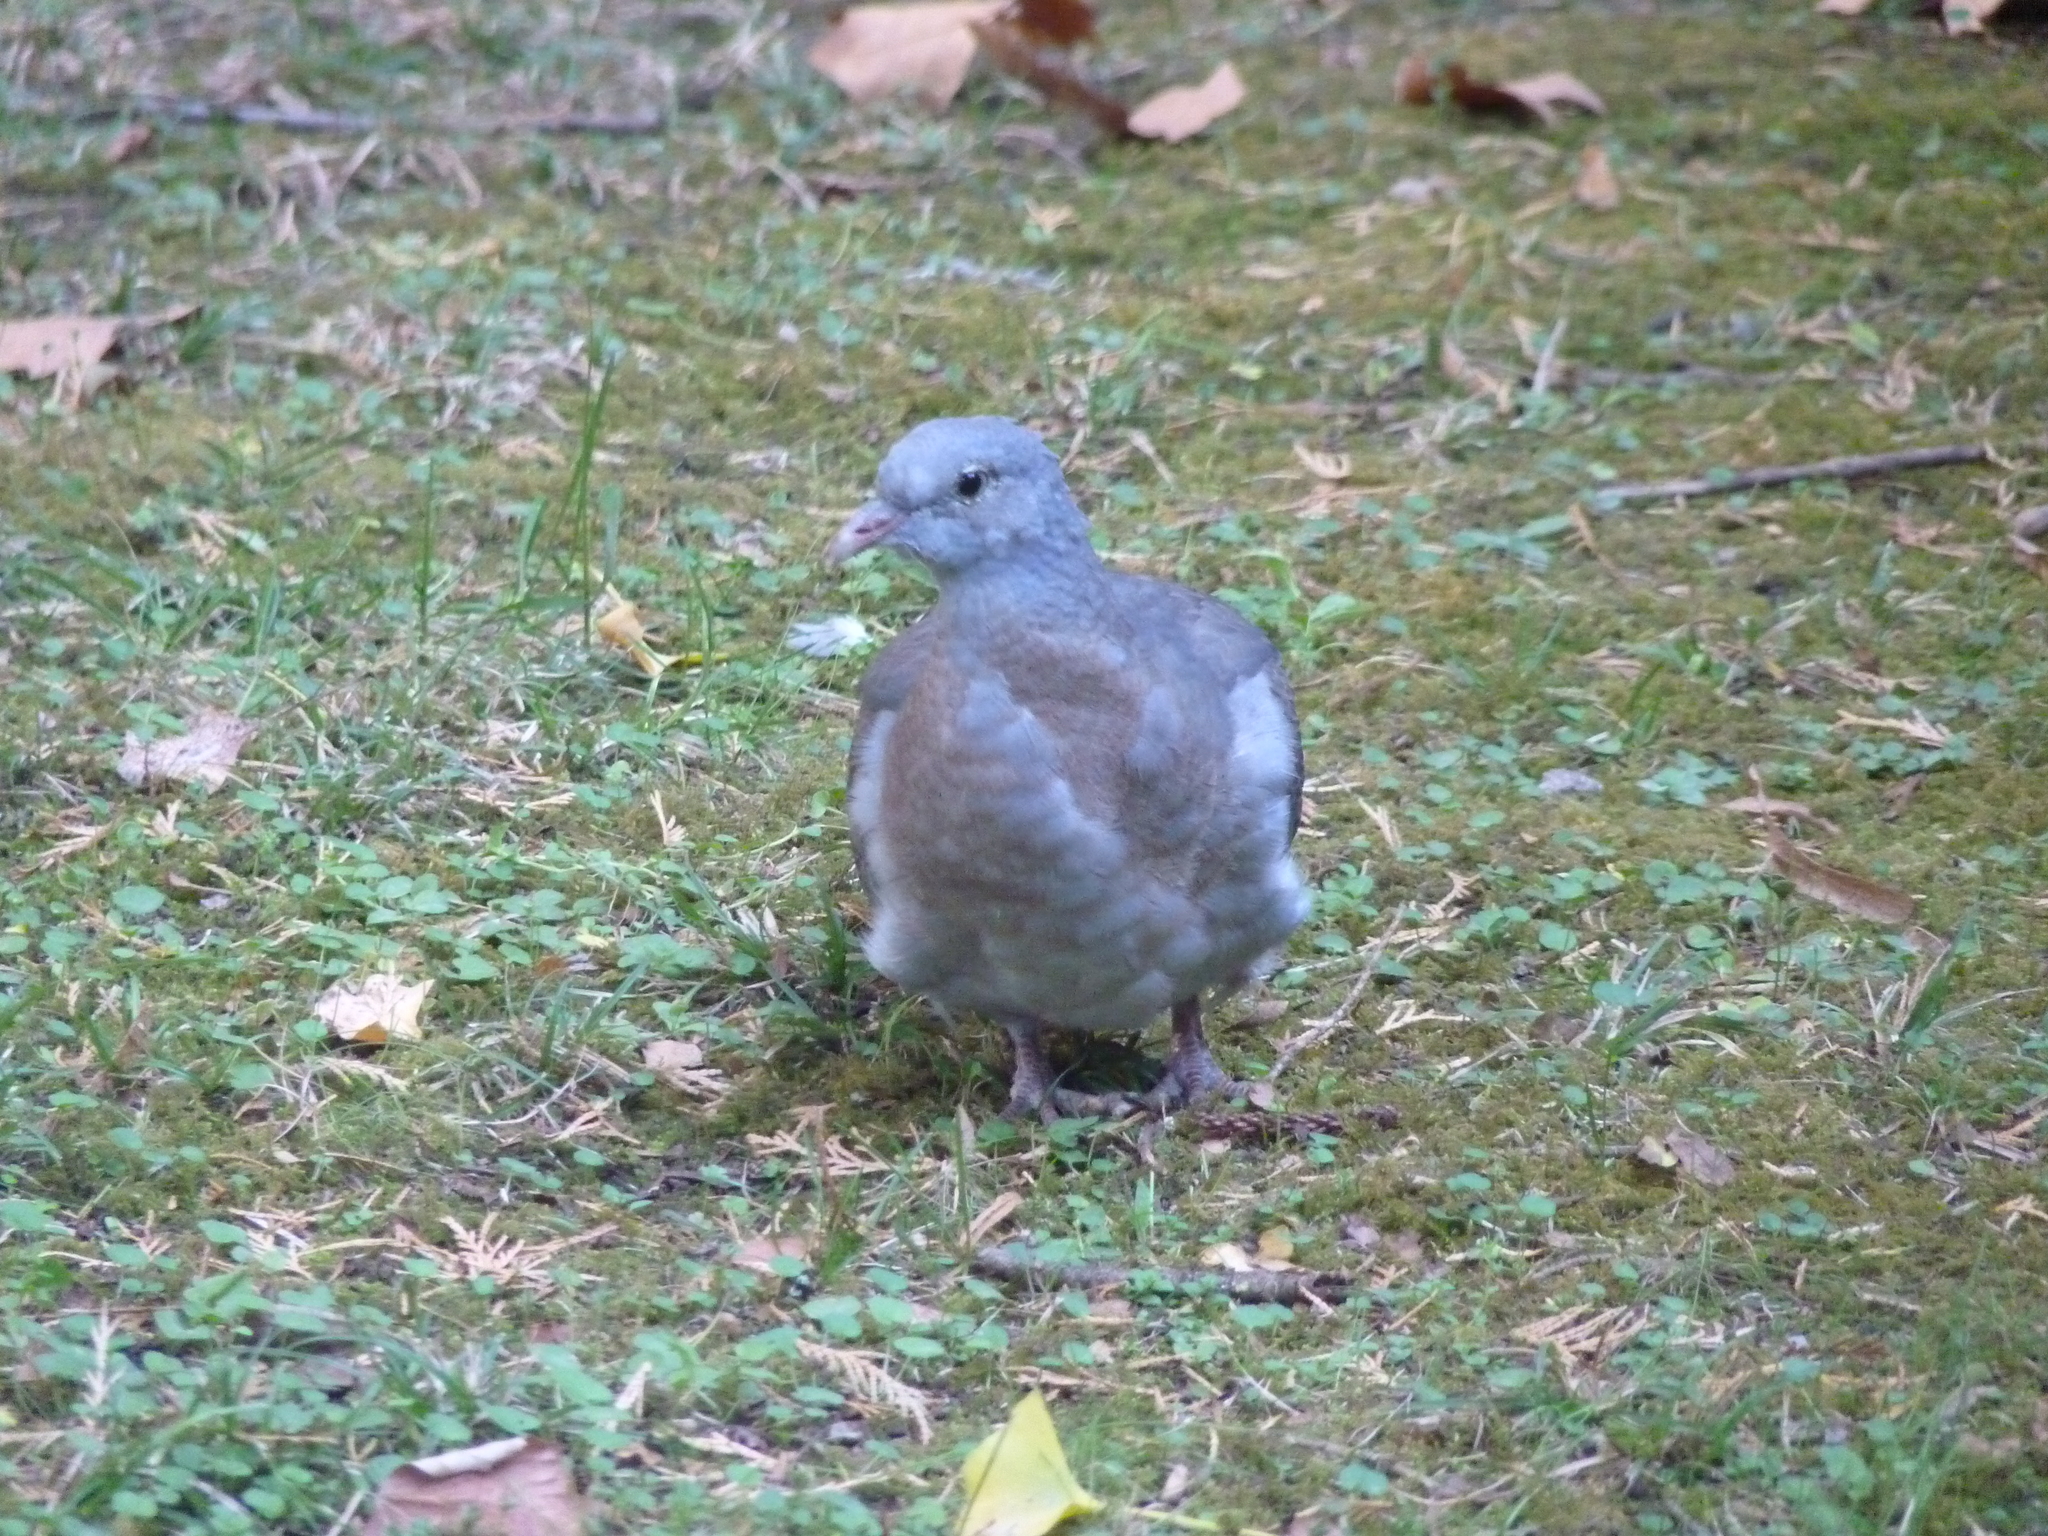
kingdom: Animalia
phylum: Chordata
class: Aves
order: Columbiformes
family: Columbidae
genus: Columba
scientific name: Columba palumbus
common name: Common wood pigeon
